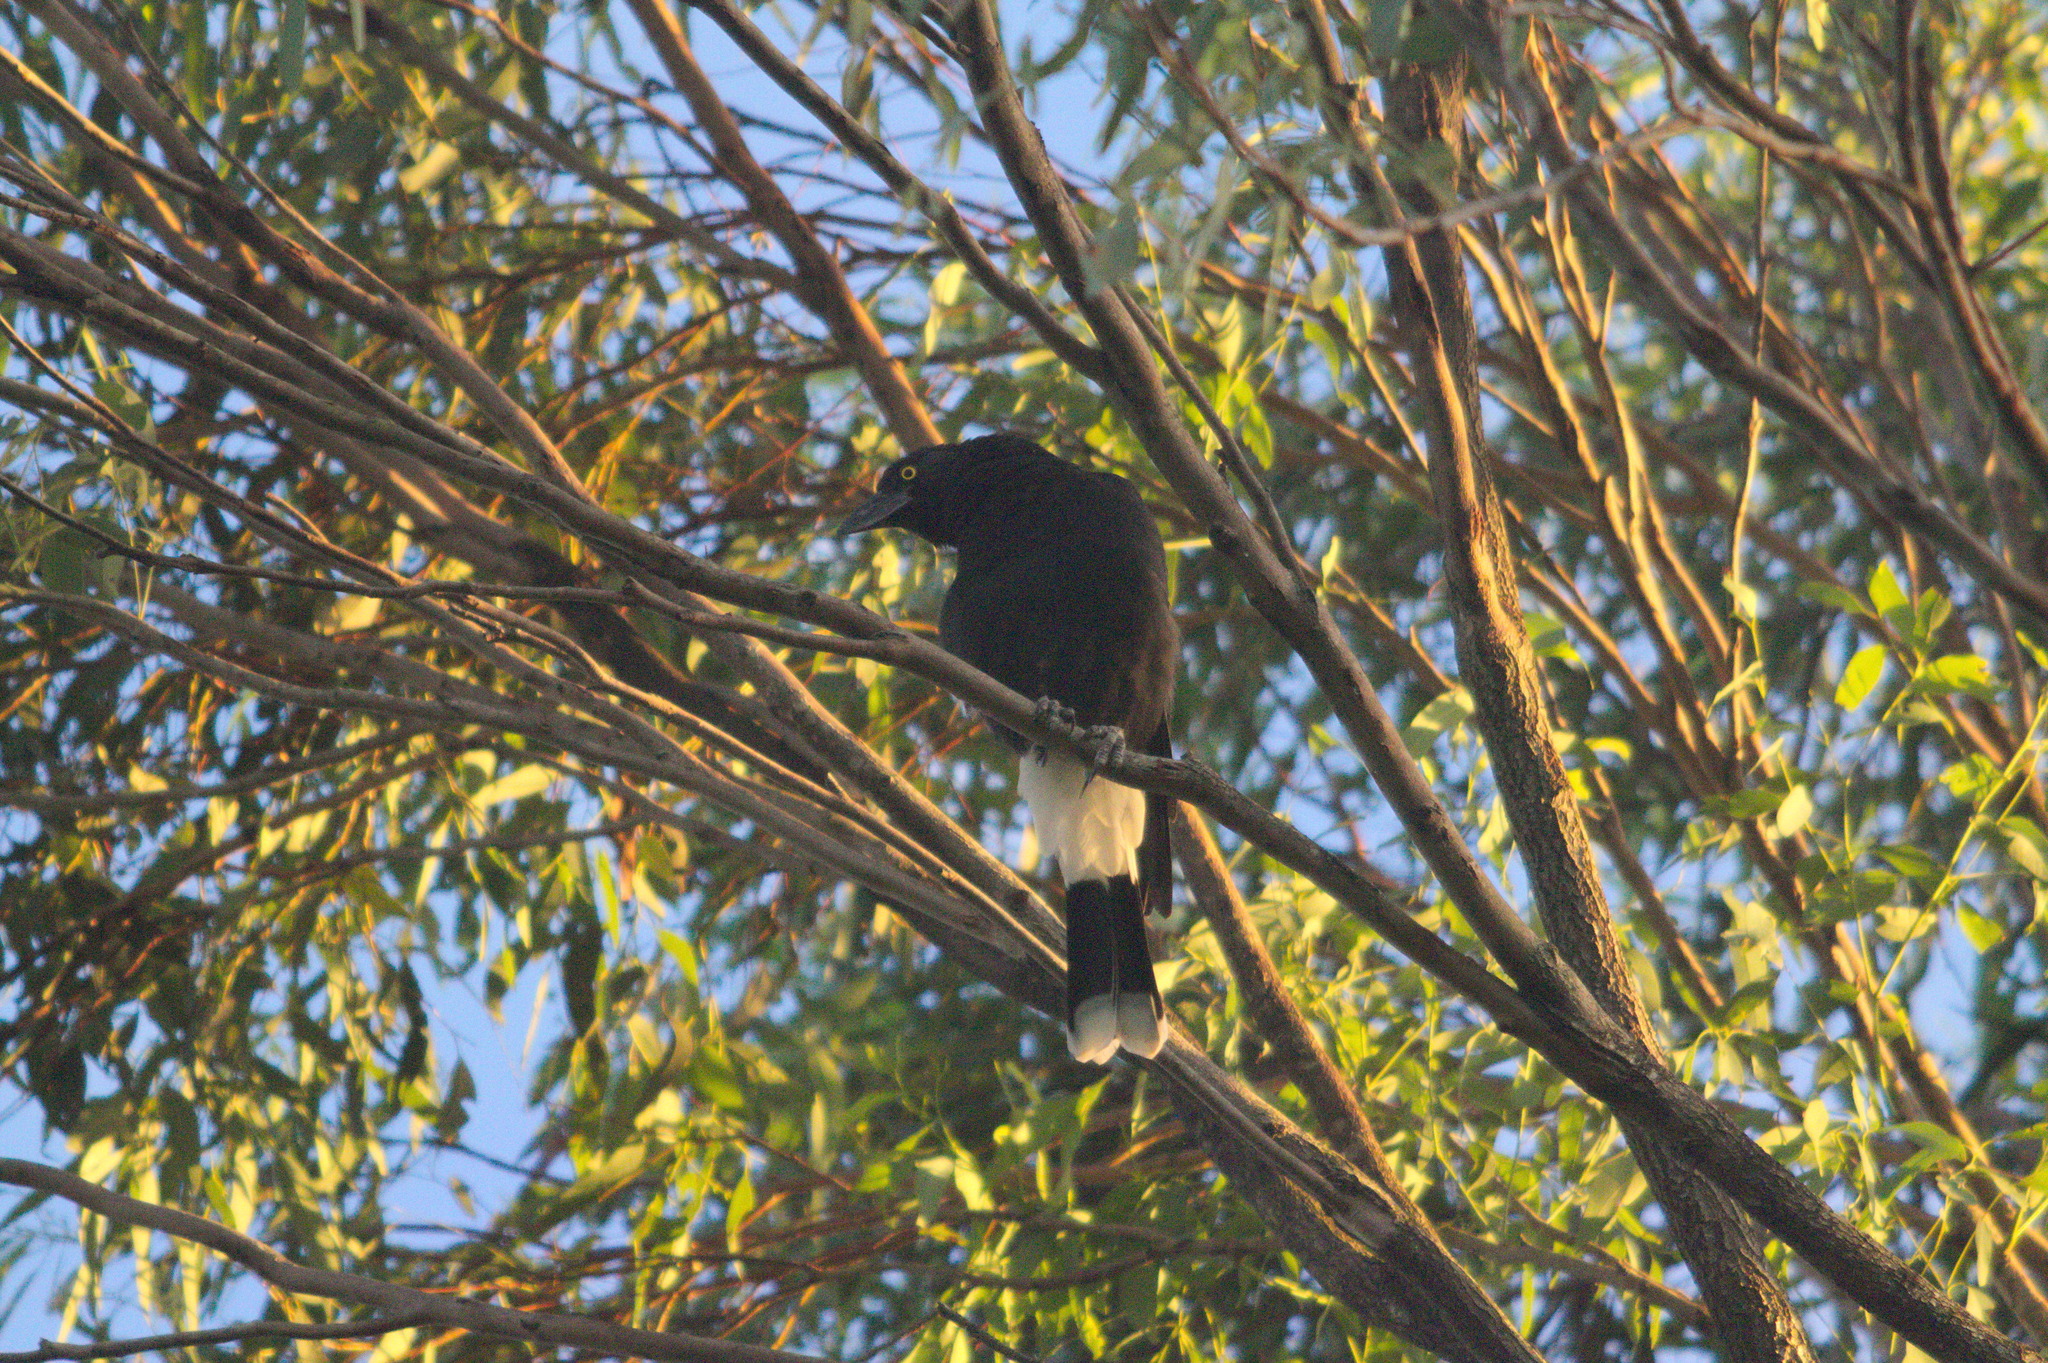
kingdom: Animalia
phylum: Chordata
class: Aves
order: Passeriformes
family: Cracticidae
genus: Strepera
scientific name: Strepera graculina
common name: Pied currawong
